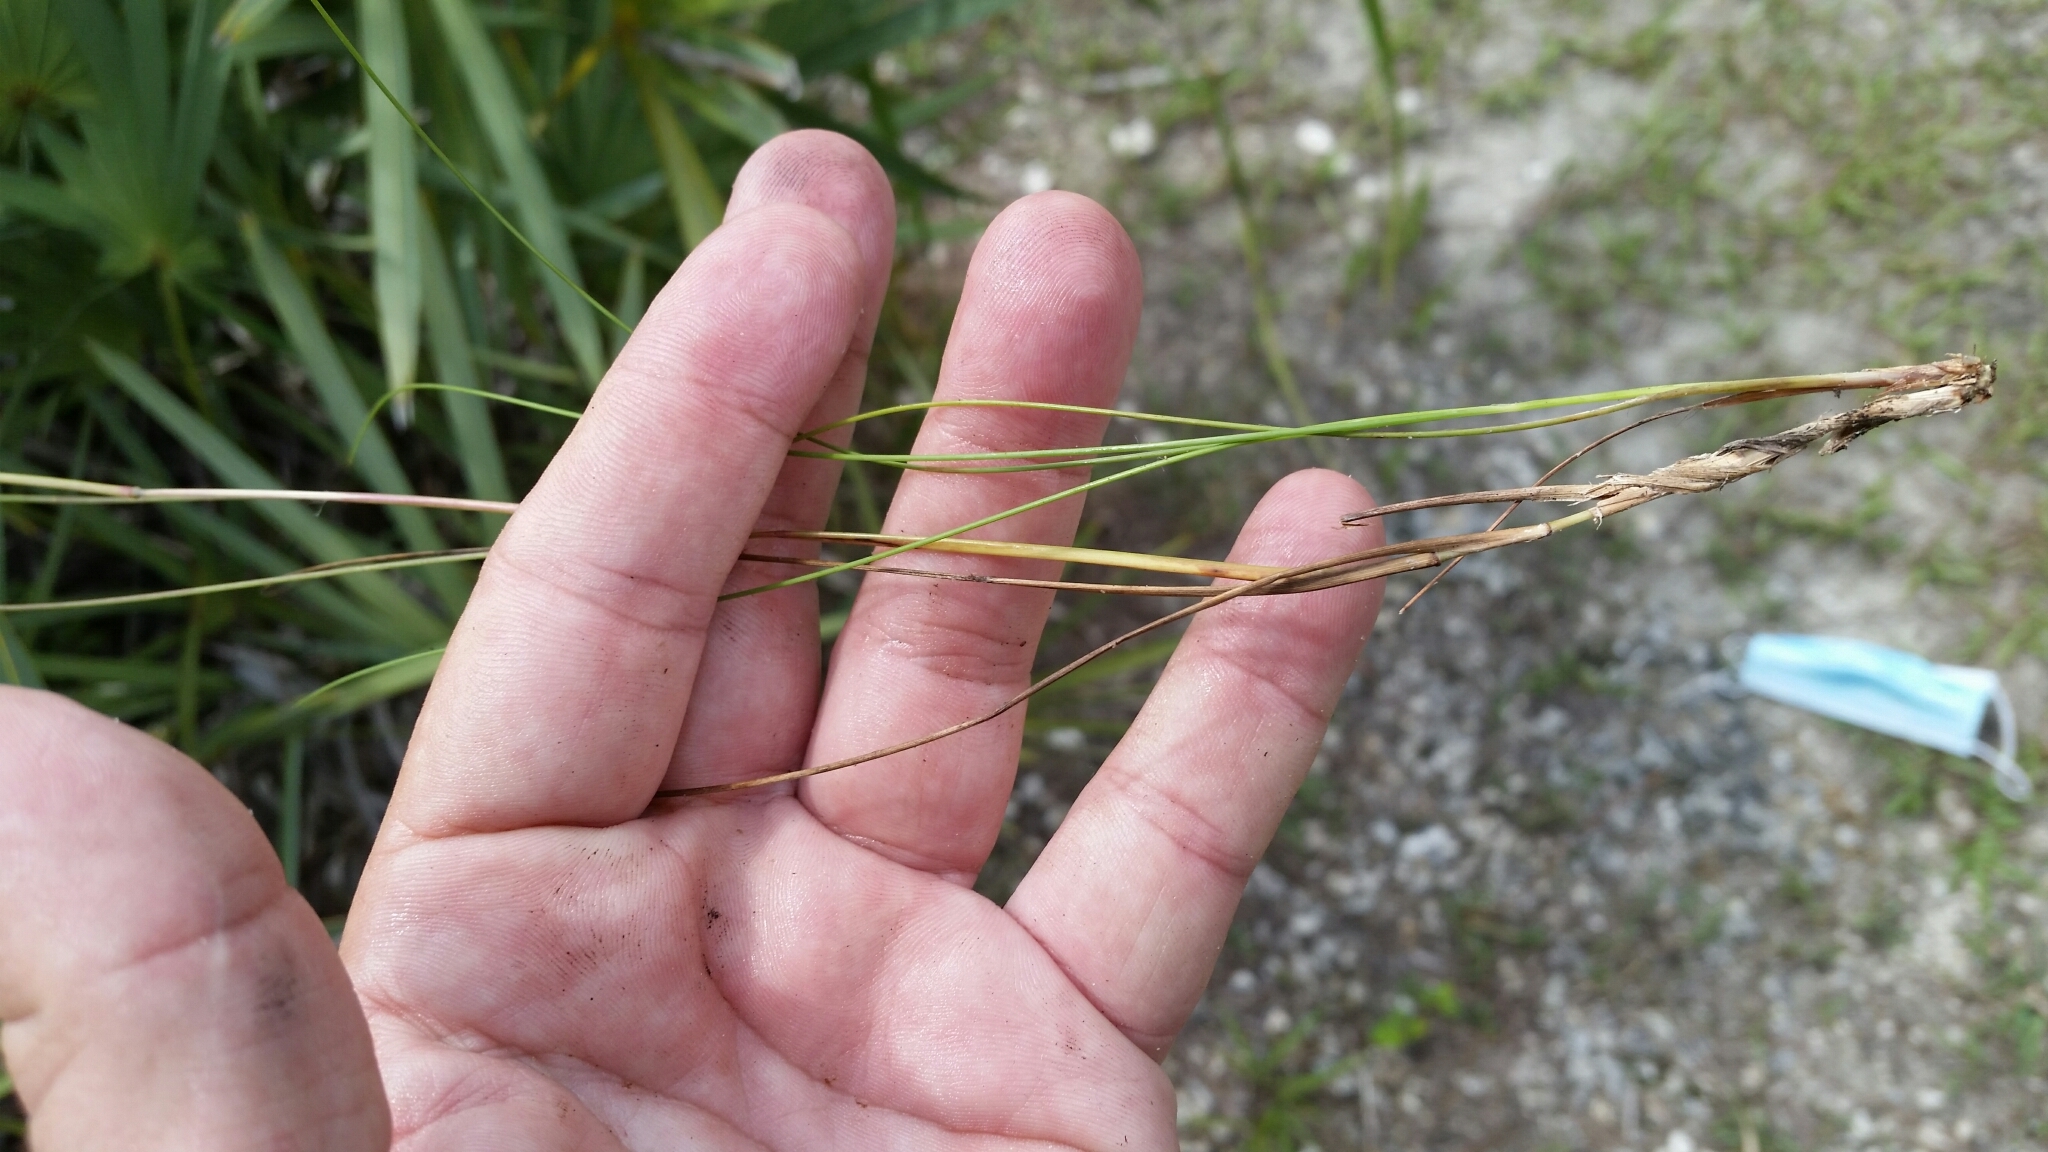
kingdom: Plantae
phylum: Tracheophyta
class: Liliopsida
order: Poales
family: Poaceae
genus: Schizachyrium
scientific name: Schizachyrium gracile
